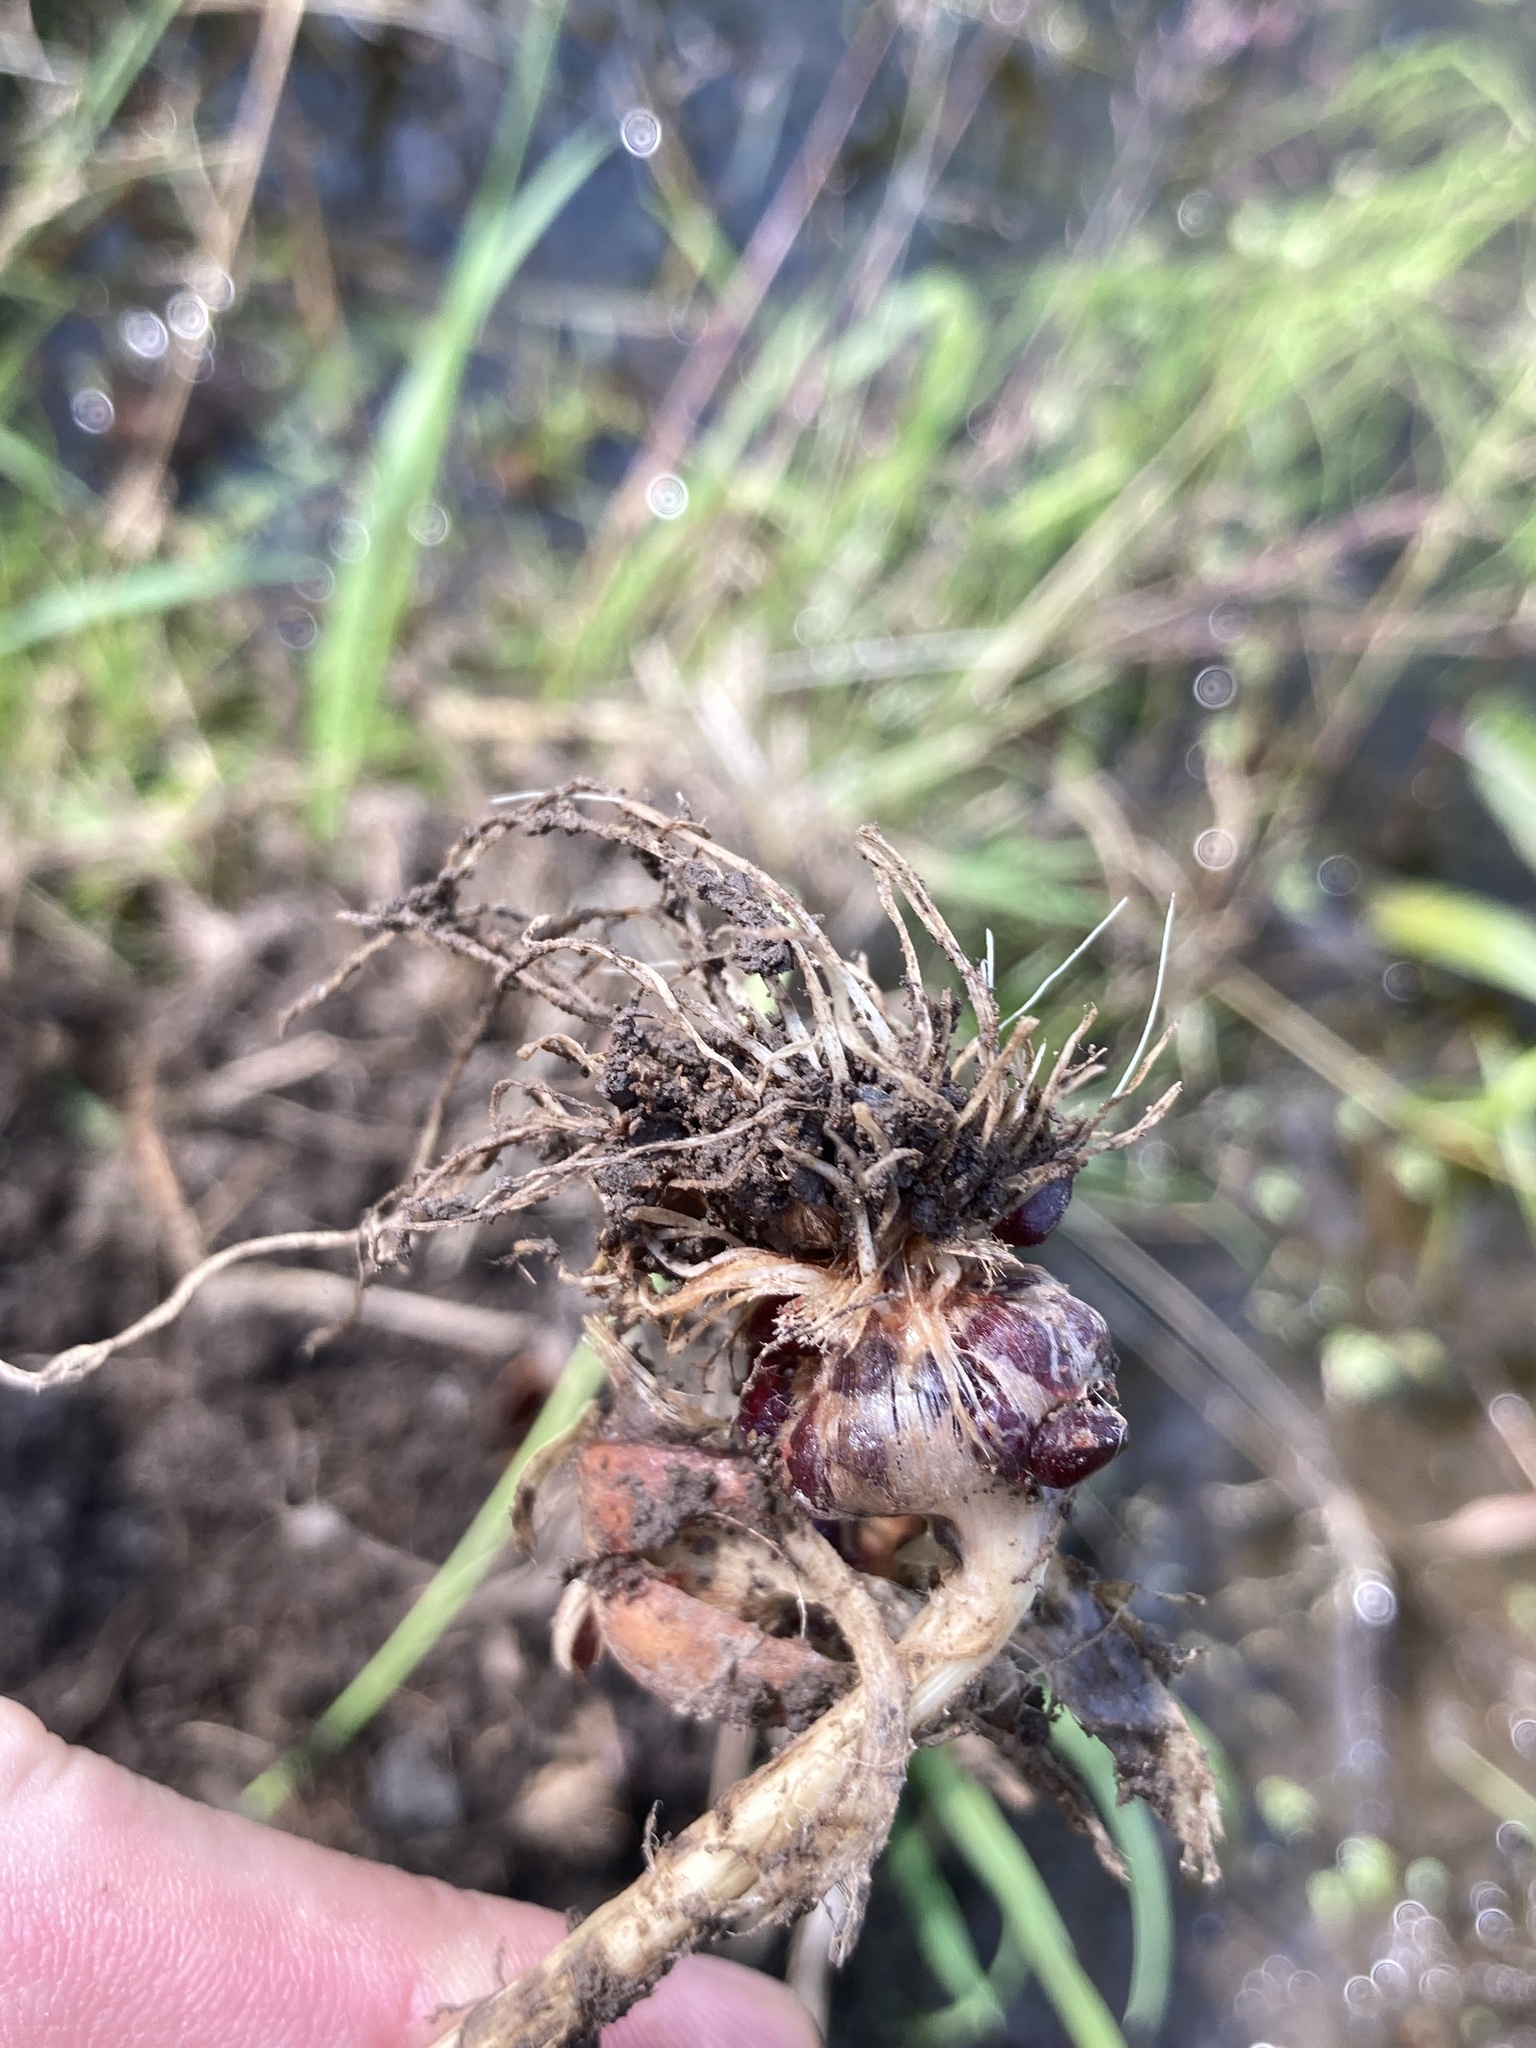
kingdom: Plantae
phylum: Tracheophyta
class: Liliopsida
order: Asparagales
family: Amaryllidaceae
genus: Allium
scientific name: Allium rotundum
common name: Sand leek
